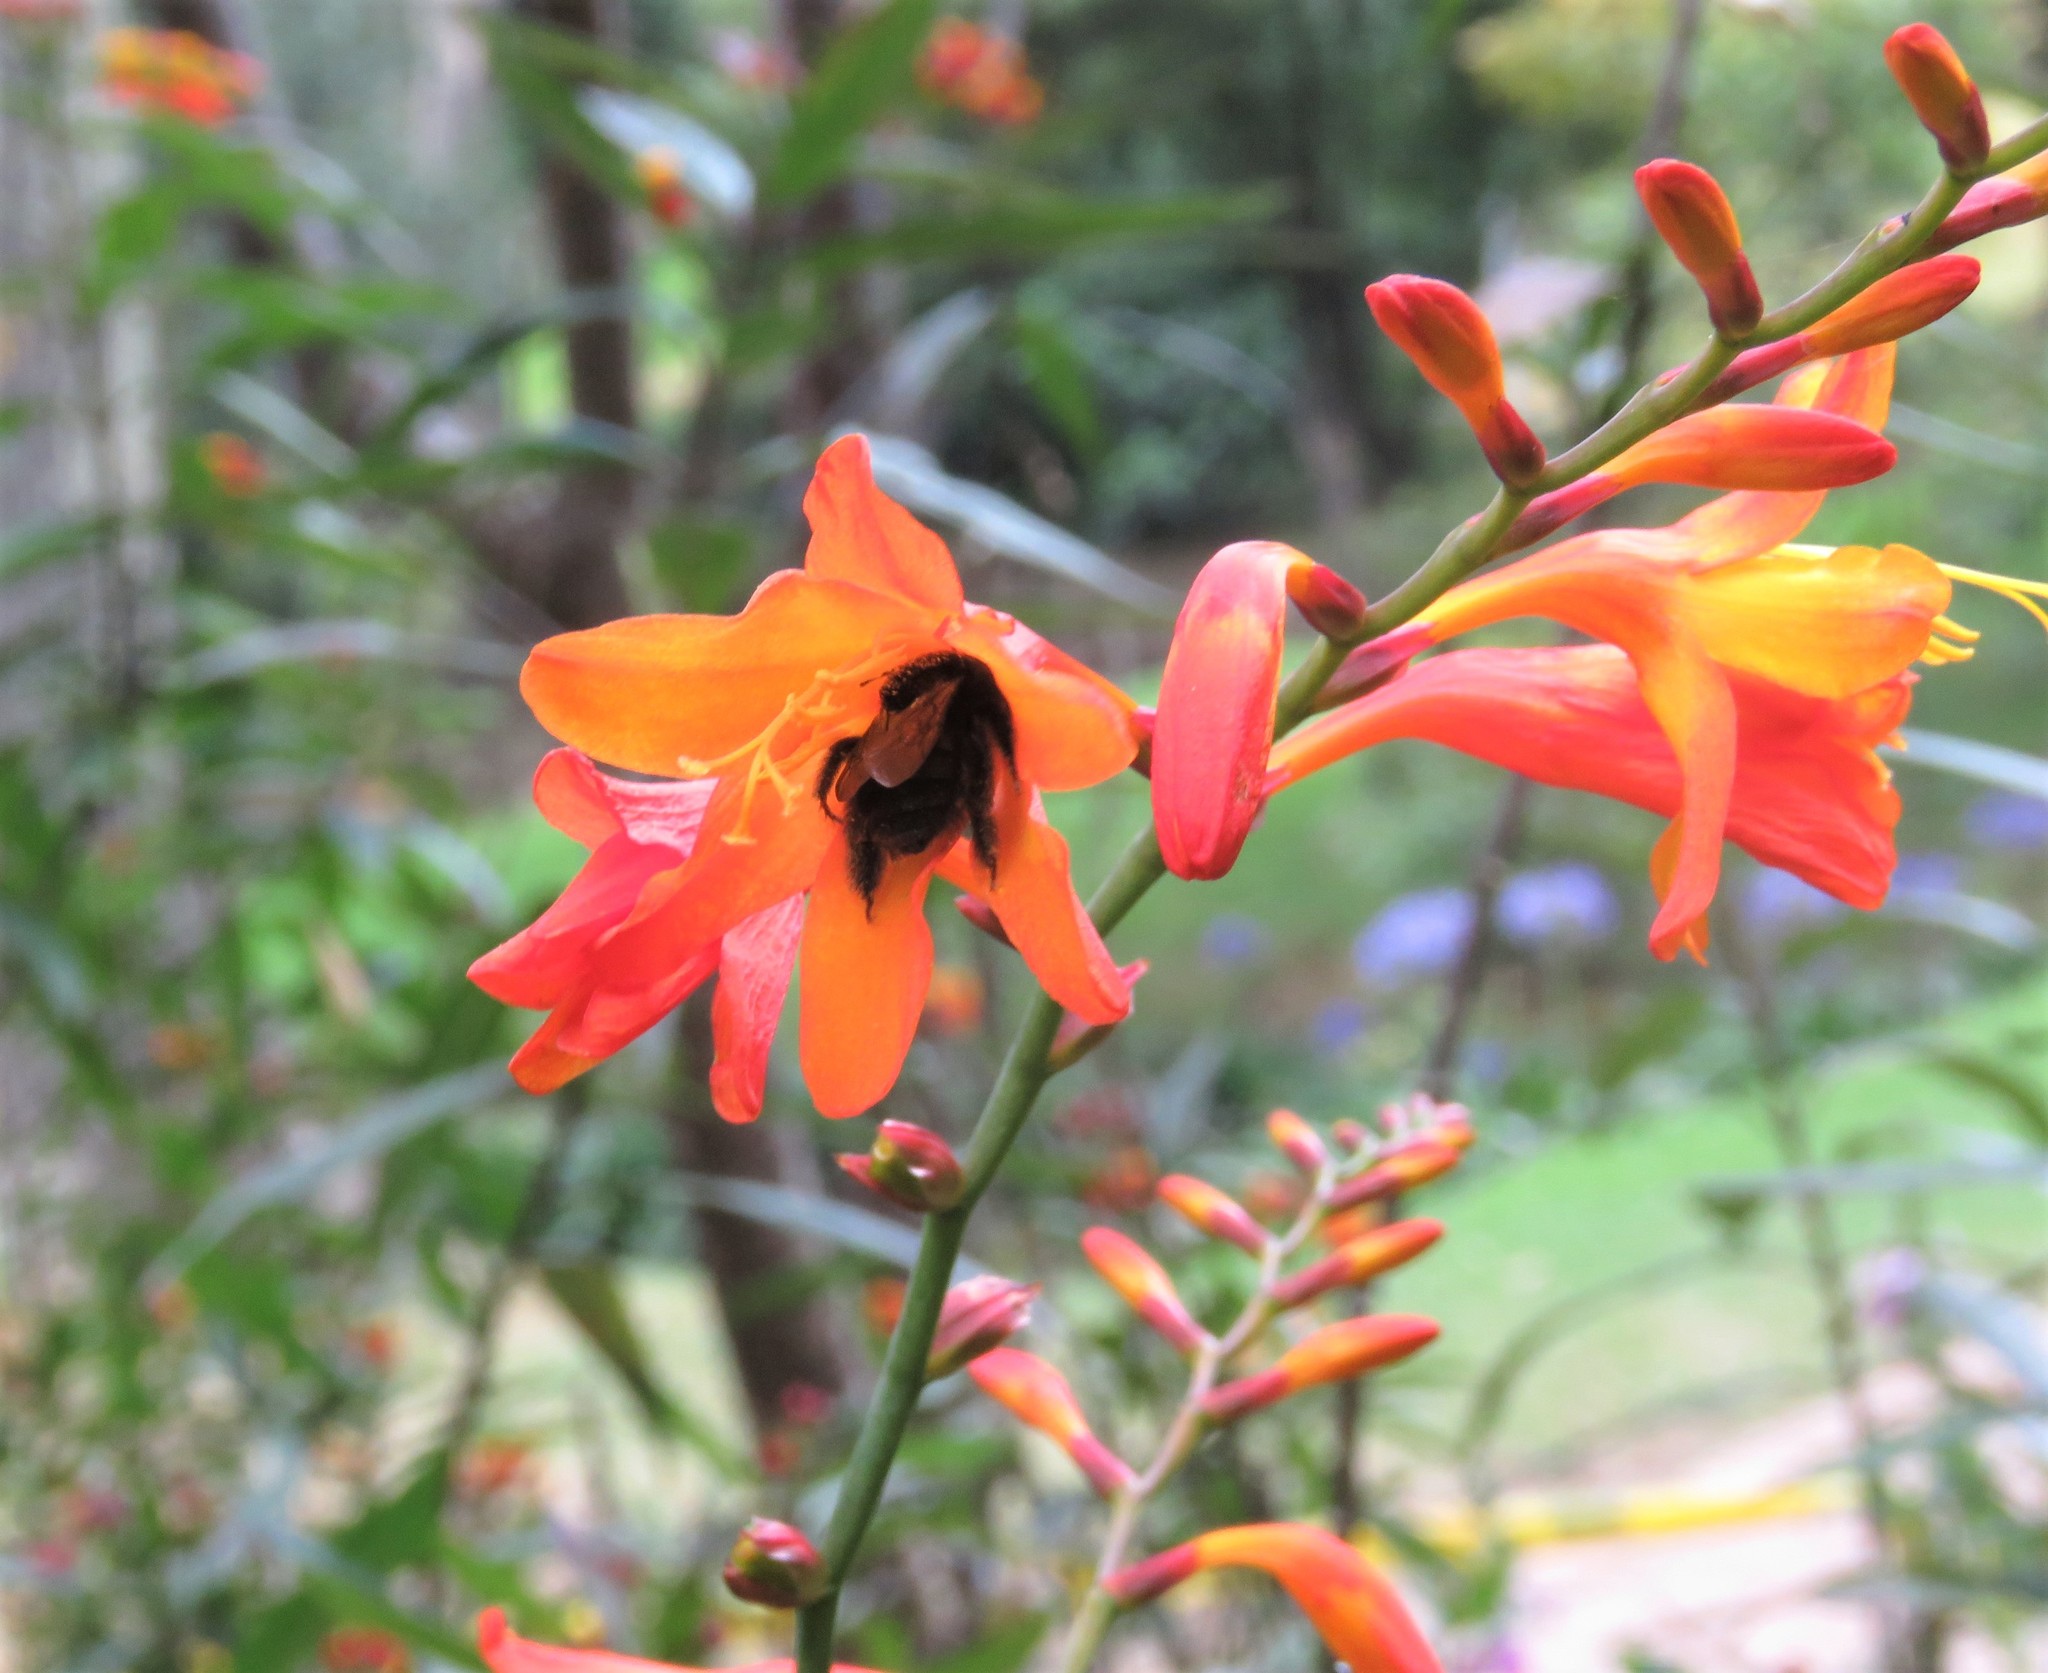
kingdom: Animalia
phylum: Arthropoda
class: Insecta
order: Hymenoptera
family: Apidae
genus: Thygater
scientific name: Thygater aethiops
